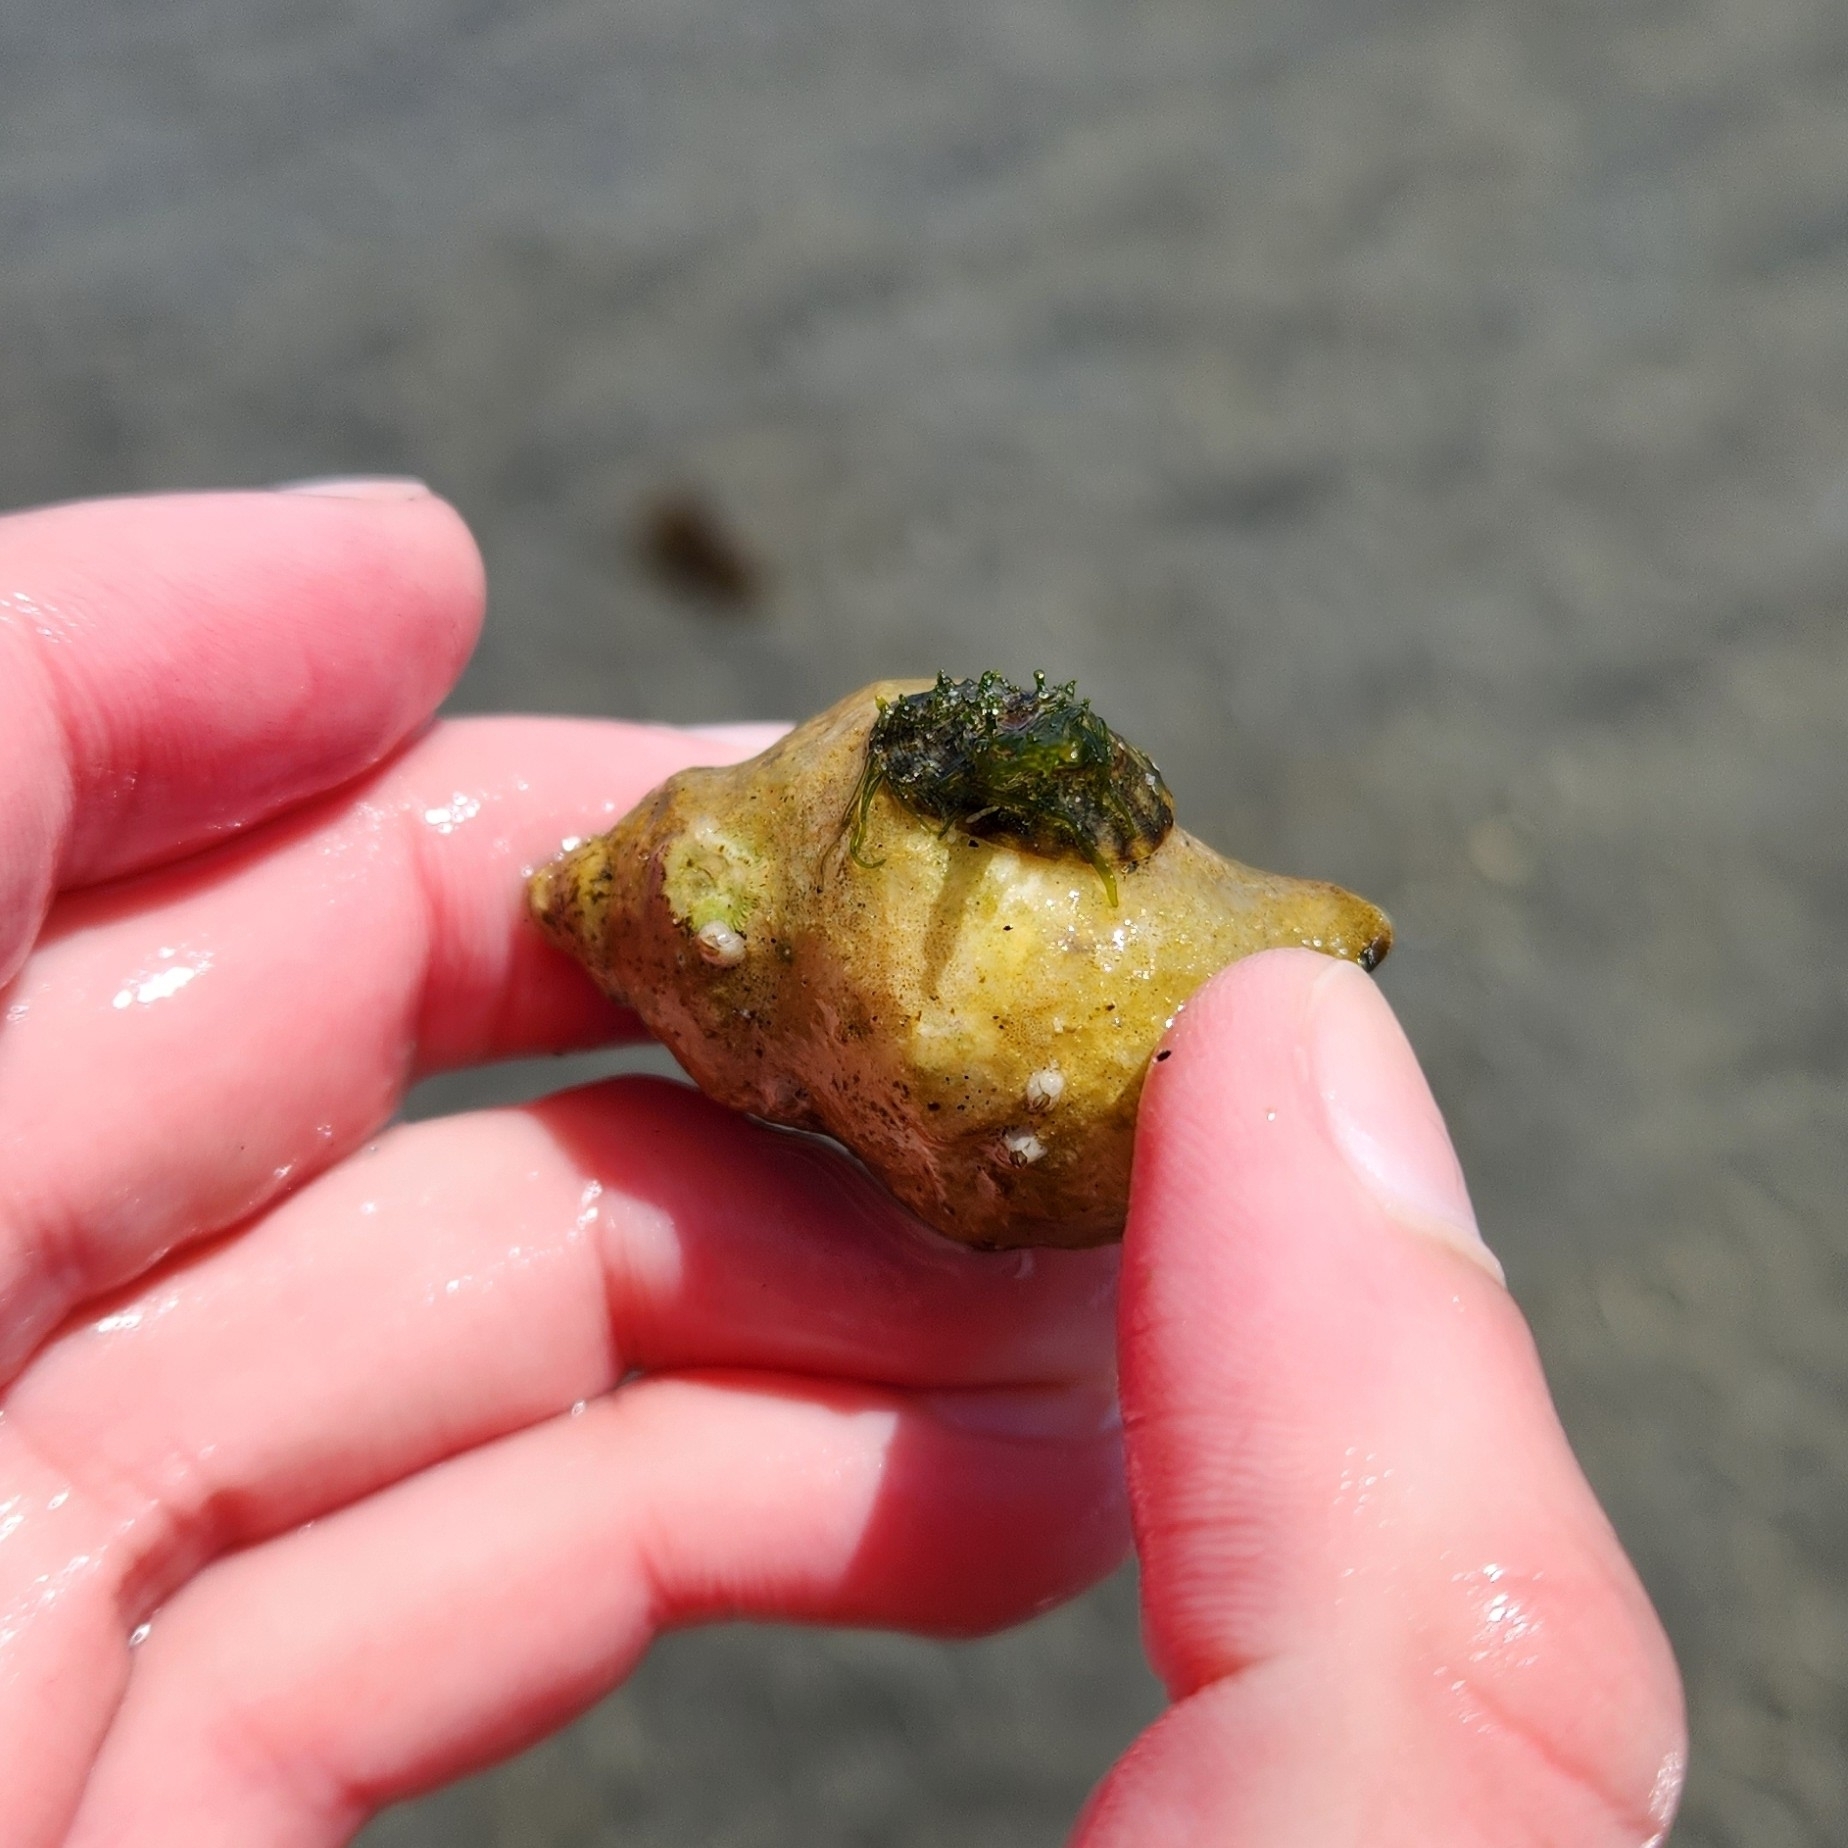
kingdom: Animalia
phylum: Arthropoda
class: Malacostraca
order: Decapoda
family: Paguridae
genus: Pagurus
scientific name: Pagurus granosimanus
